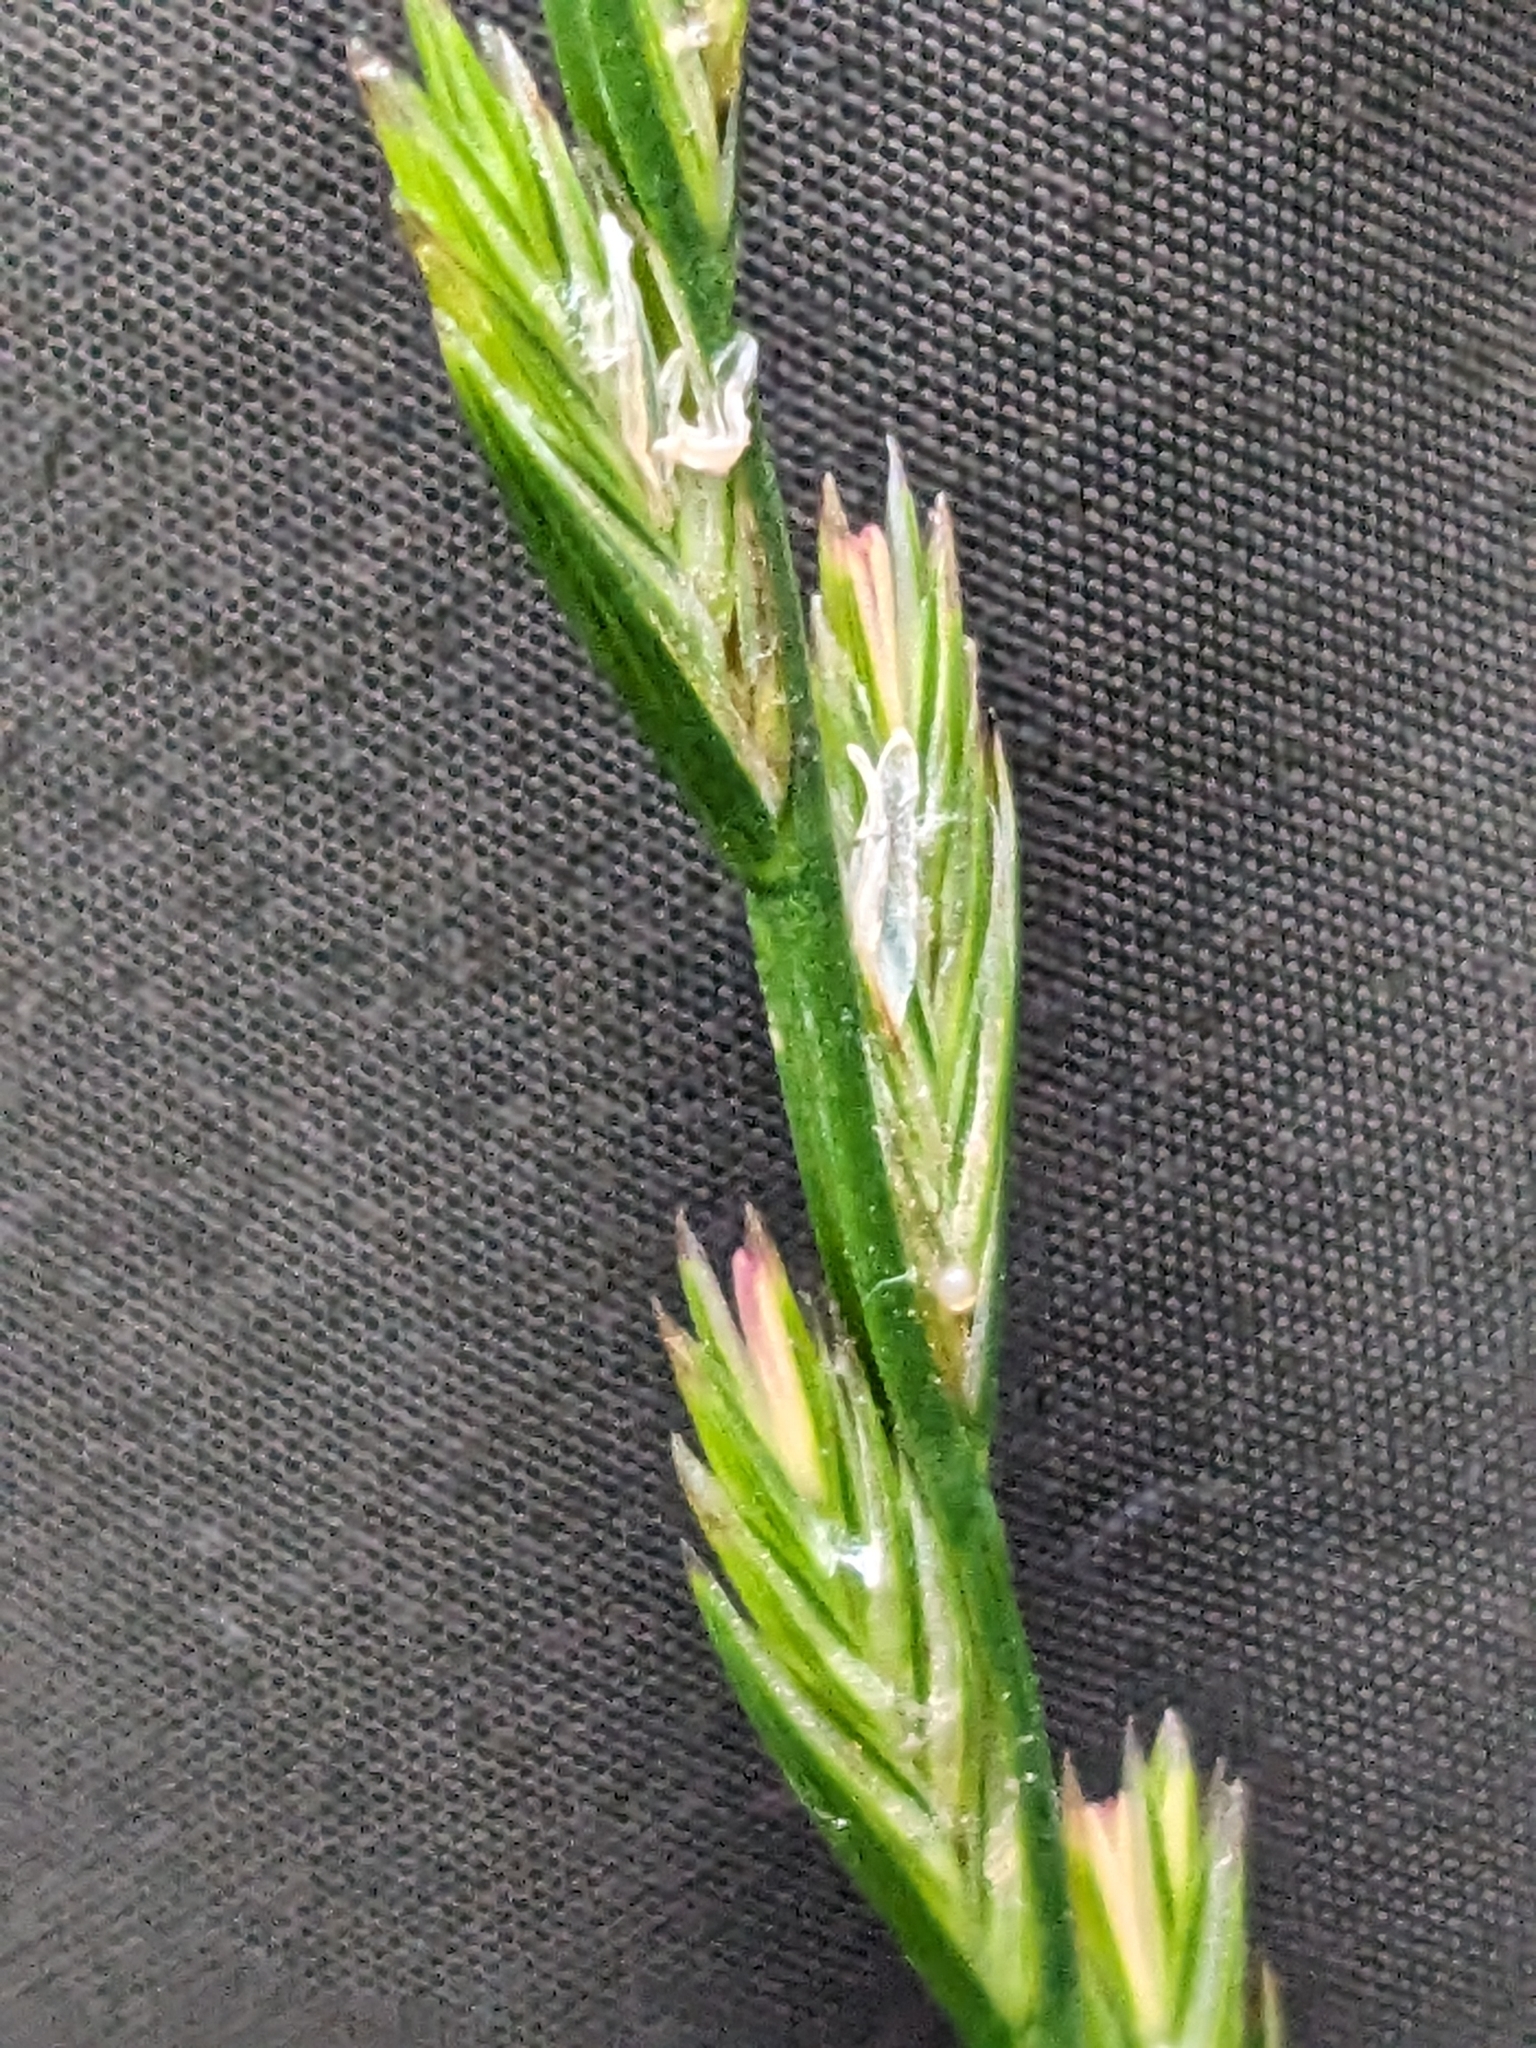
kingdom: Plantae
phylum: Tracheophyta
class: Liliopsida
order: Poales
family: Poaceae
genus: Lolium
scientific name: Lolium perenne
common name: Perennial ryegrass
